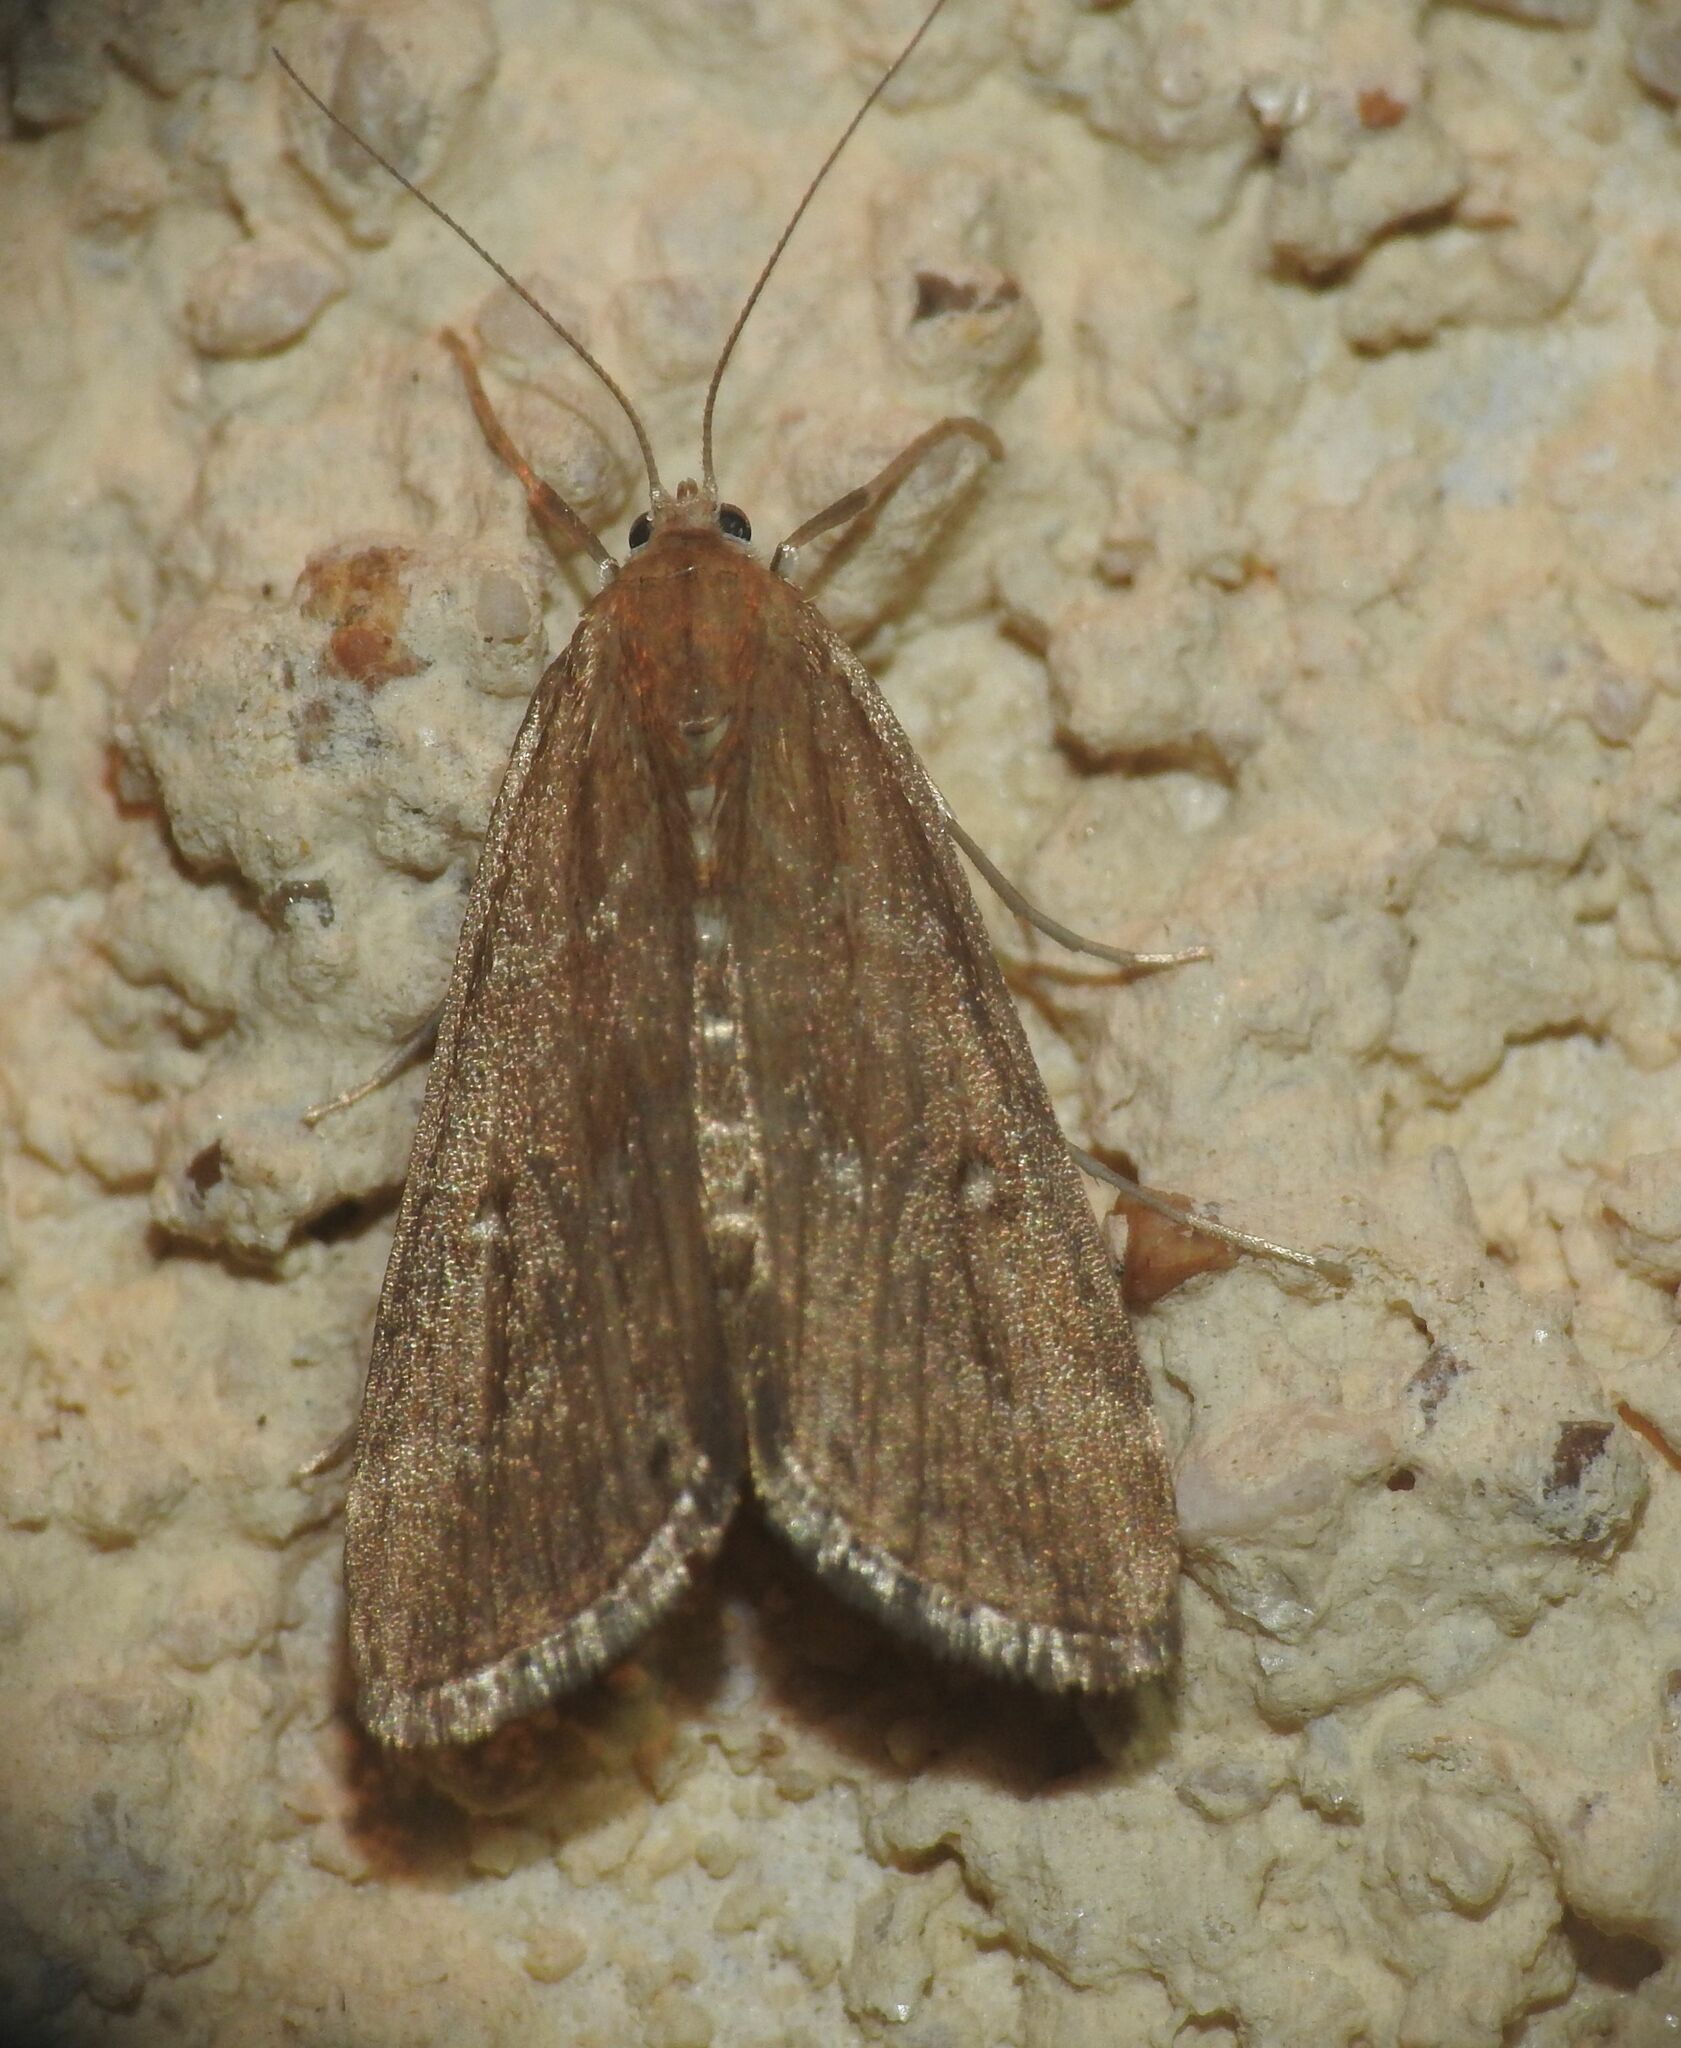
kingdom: Animalia
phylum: Arthropoda
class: Insecta
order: Lepidoptera
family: Crambidae
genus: Parapoynx
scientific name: Parapoynx stratiotata
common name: Ringed china-mark
